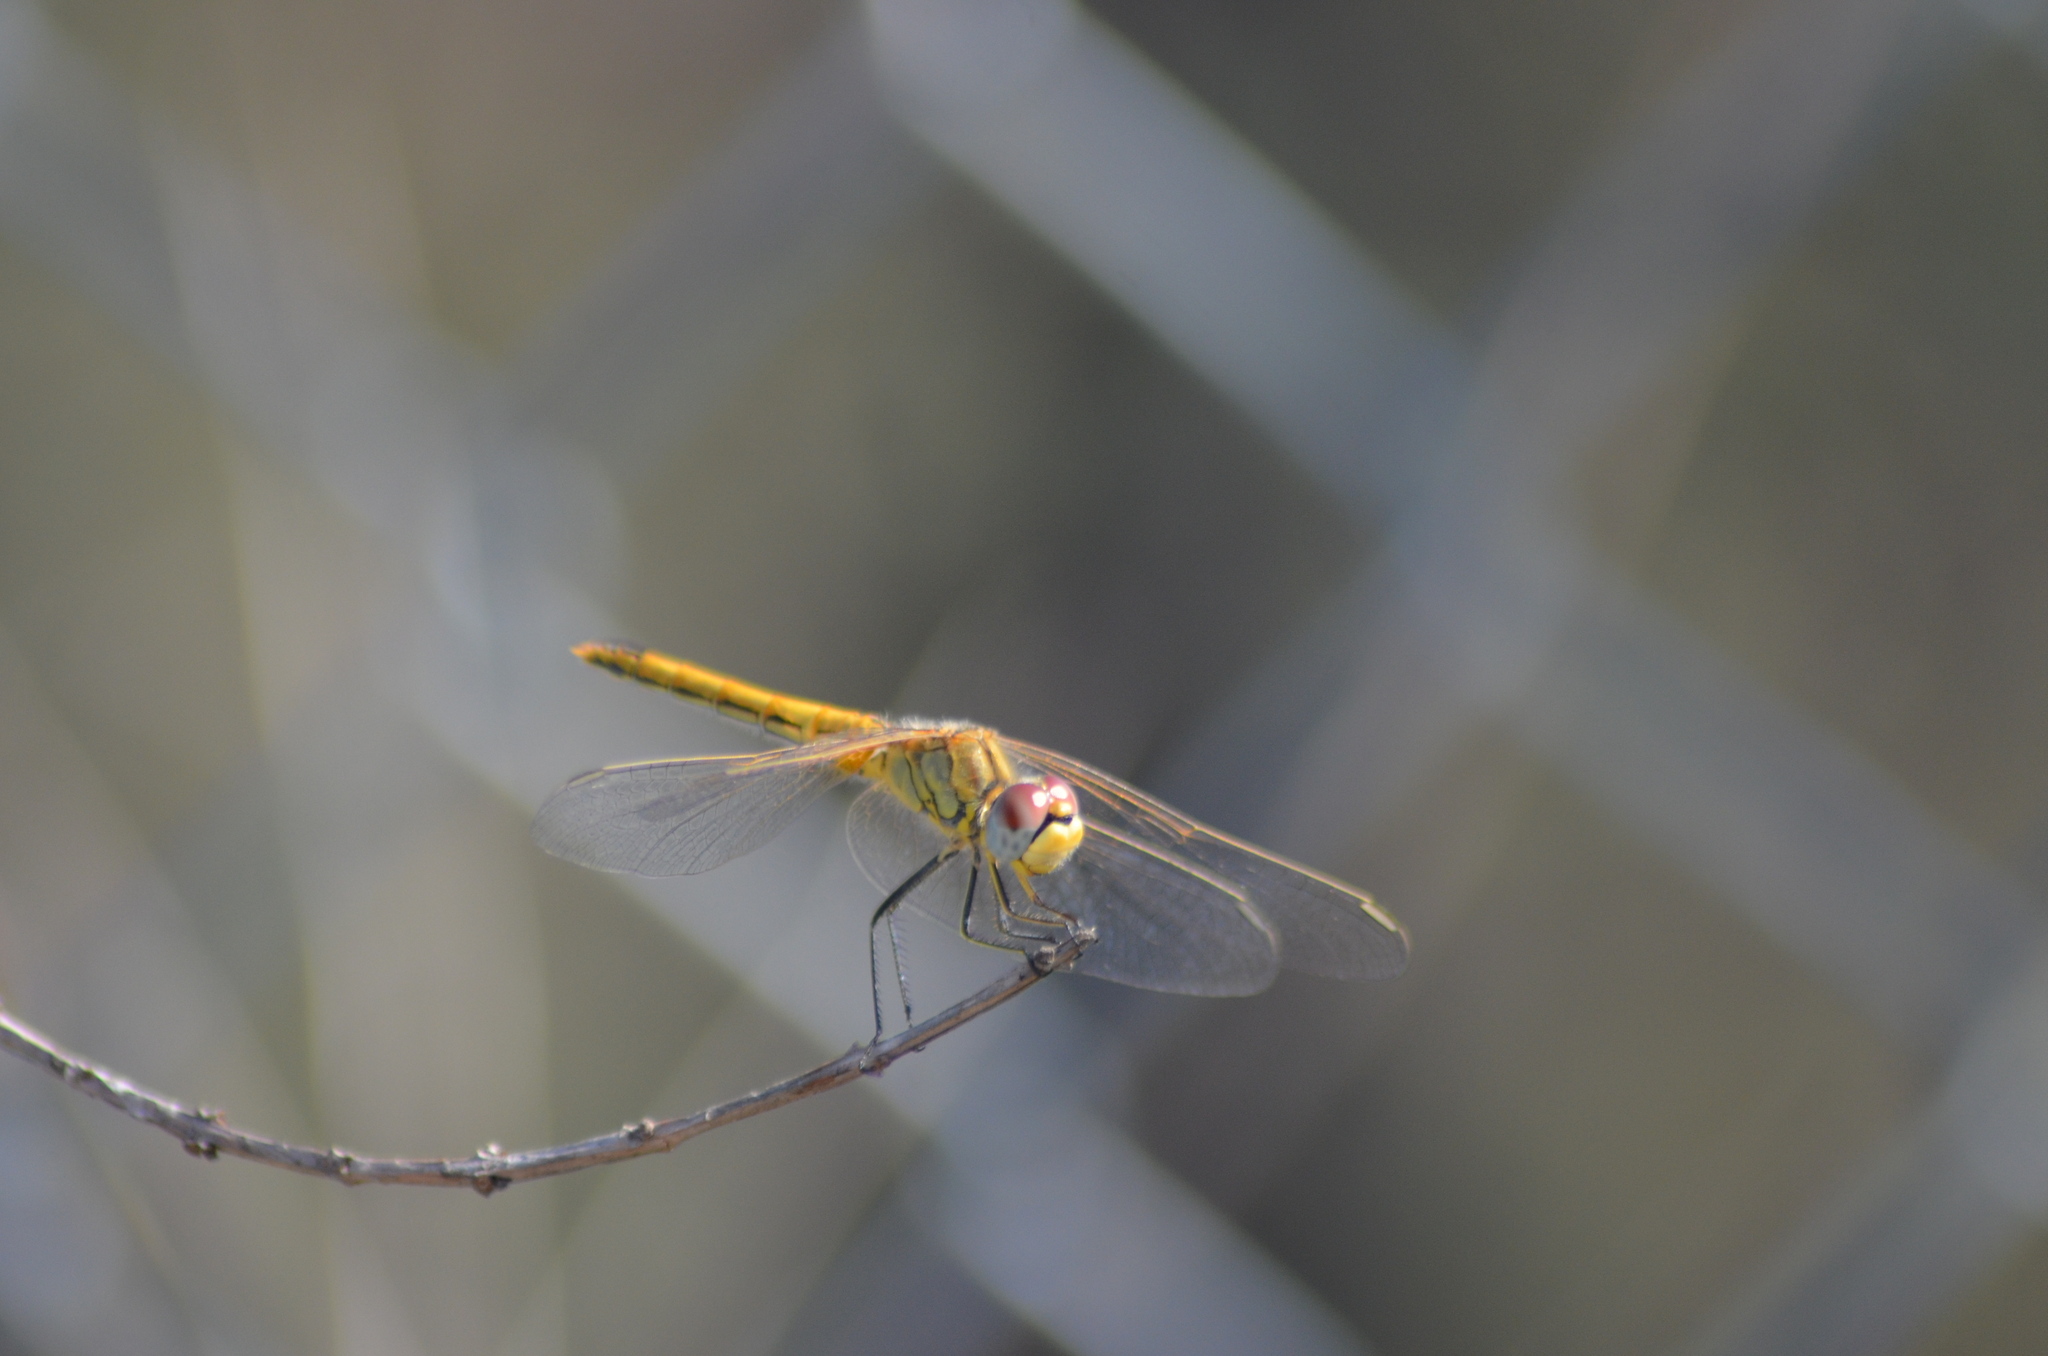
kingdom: Animalia
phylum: Arthropoda
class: Insecta
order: Odonata
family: Libellulidae
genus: Sympetrum
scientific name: Sympetrum fonscolombii
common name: Red-veined darter
